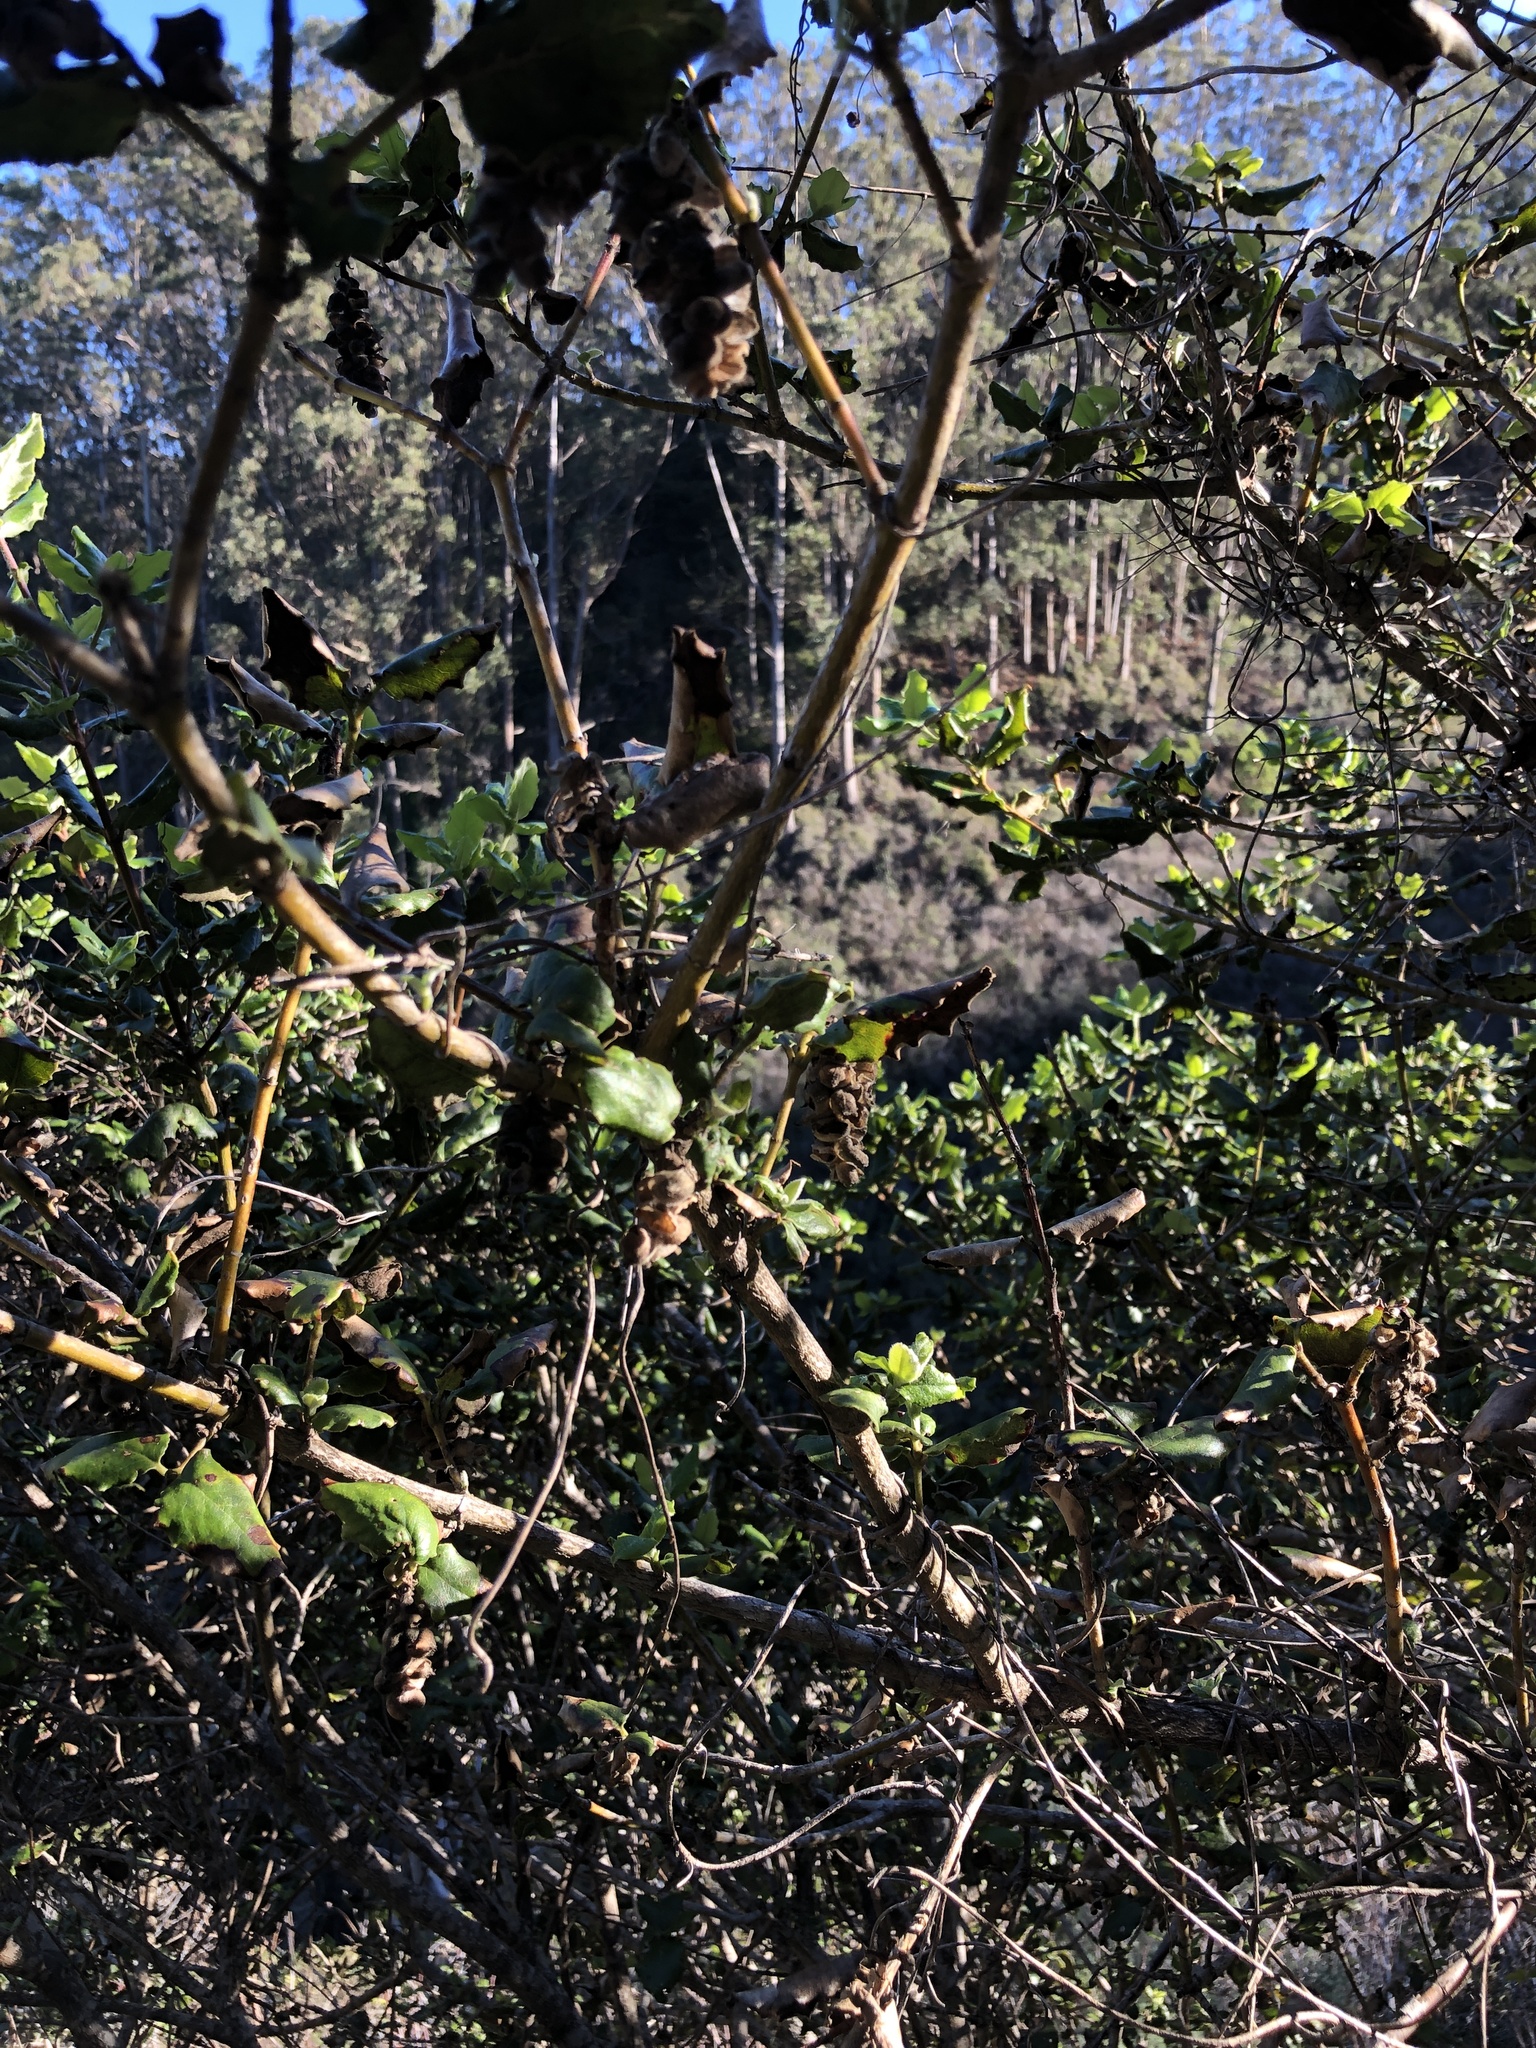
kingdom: Plantae
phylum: Tracheophyta
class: Magnoliopsida
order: Garryales
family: Garryaceae
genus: Garrya
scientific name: Garrya elliptica
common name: Silk-tassel
